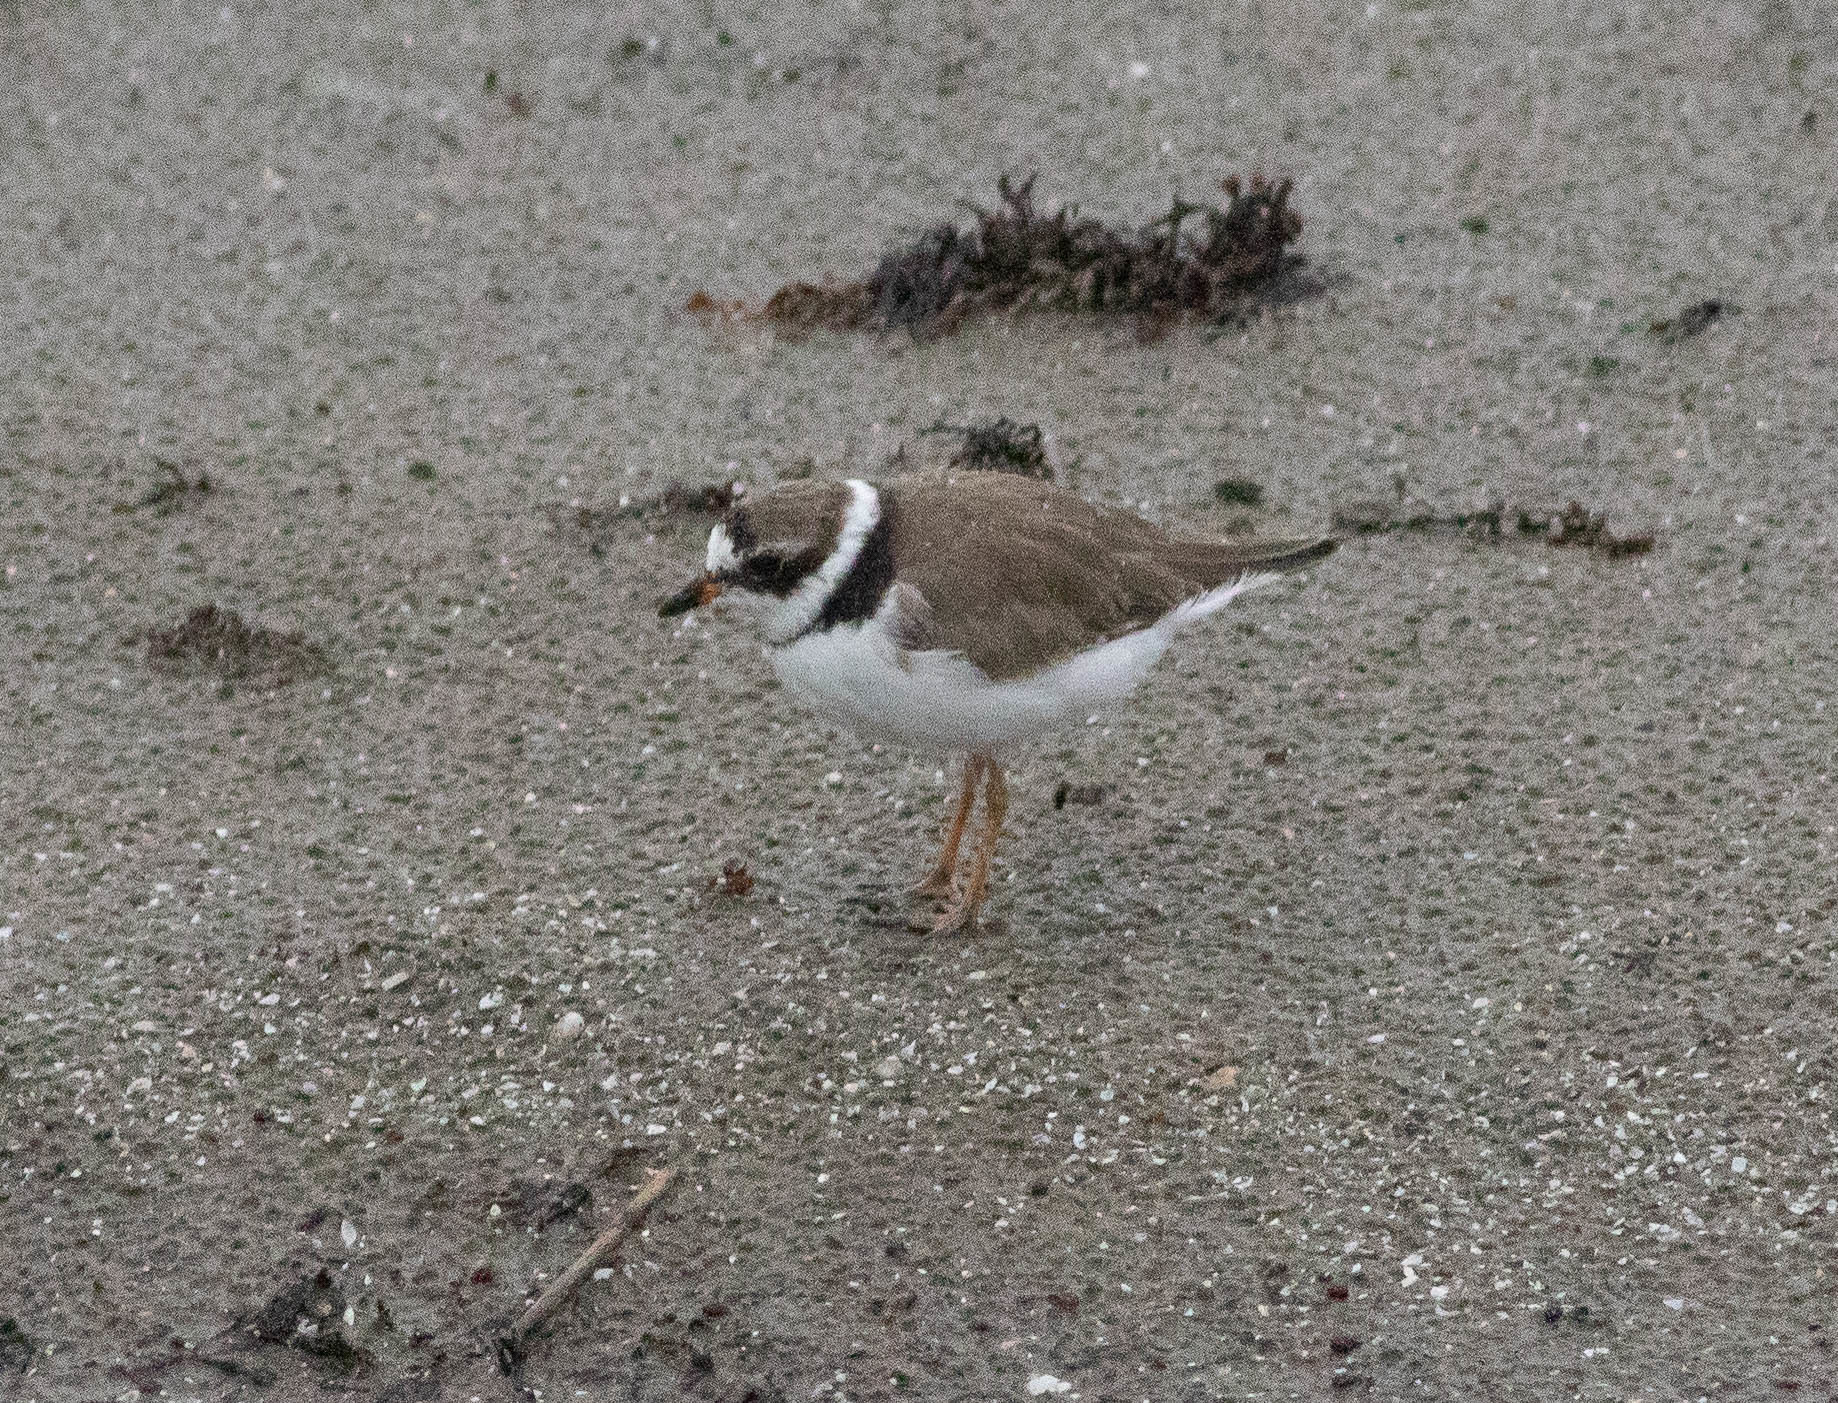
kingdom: Animalia
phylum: Chordata
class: Aves
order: Charadriiformes
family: Charadriidae
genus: Charadrius
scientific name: Charadrius semipalmatus
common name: Semipalmated plover
